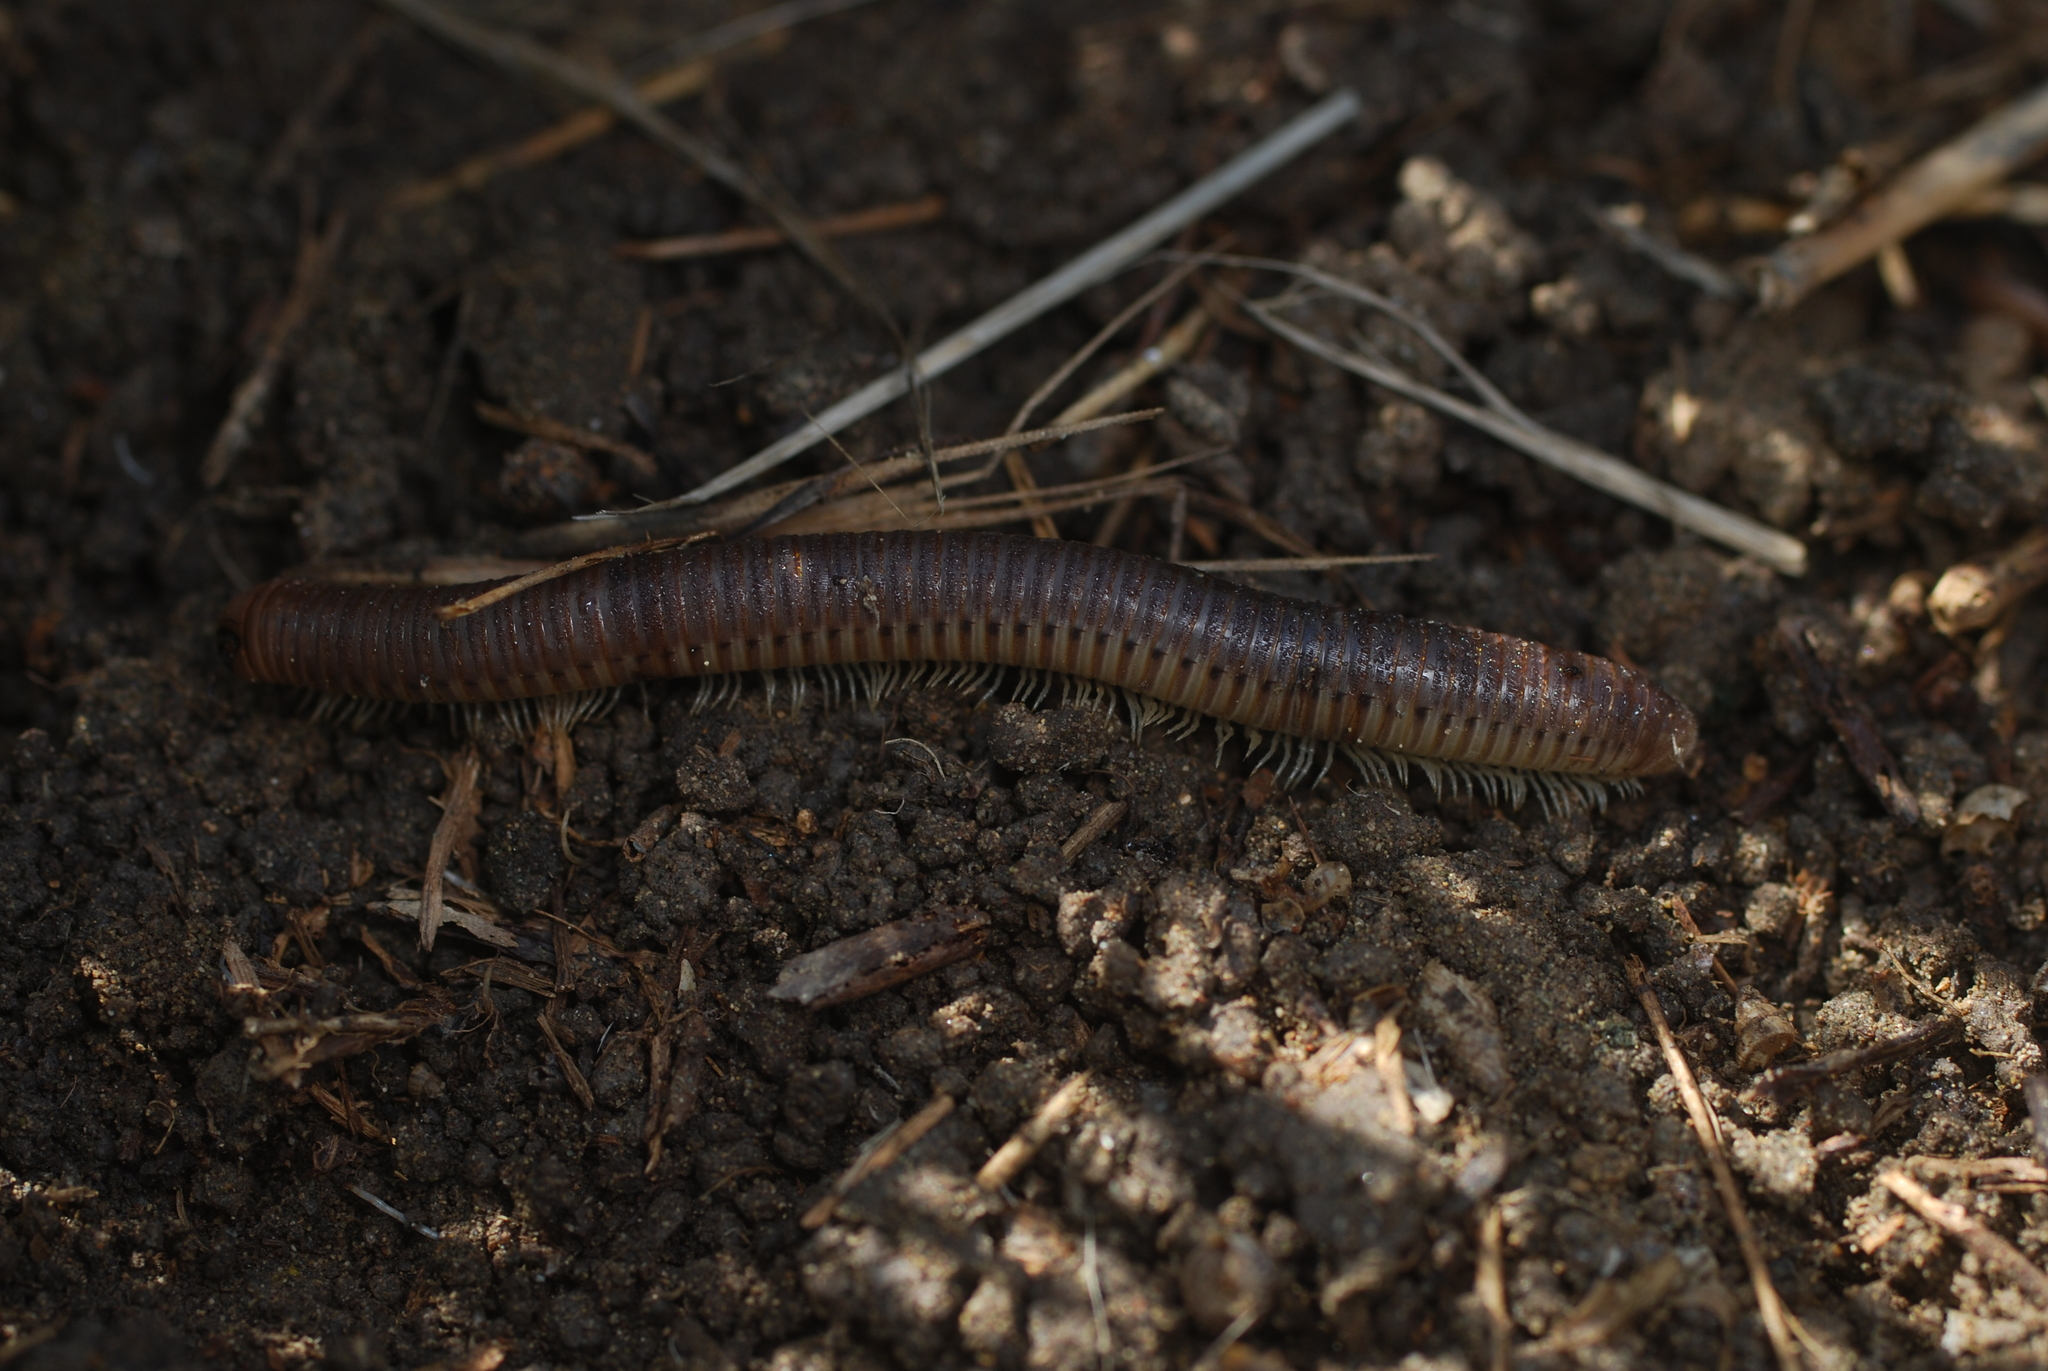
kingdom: Animalia
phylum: Arthropoda
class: Diplopoda
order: Julida
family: Julidae
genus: Pachyiulus
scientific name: Pachyiulus flavipes
